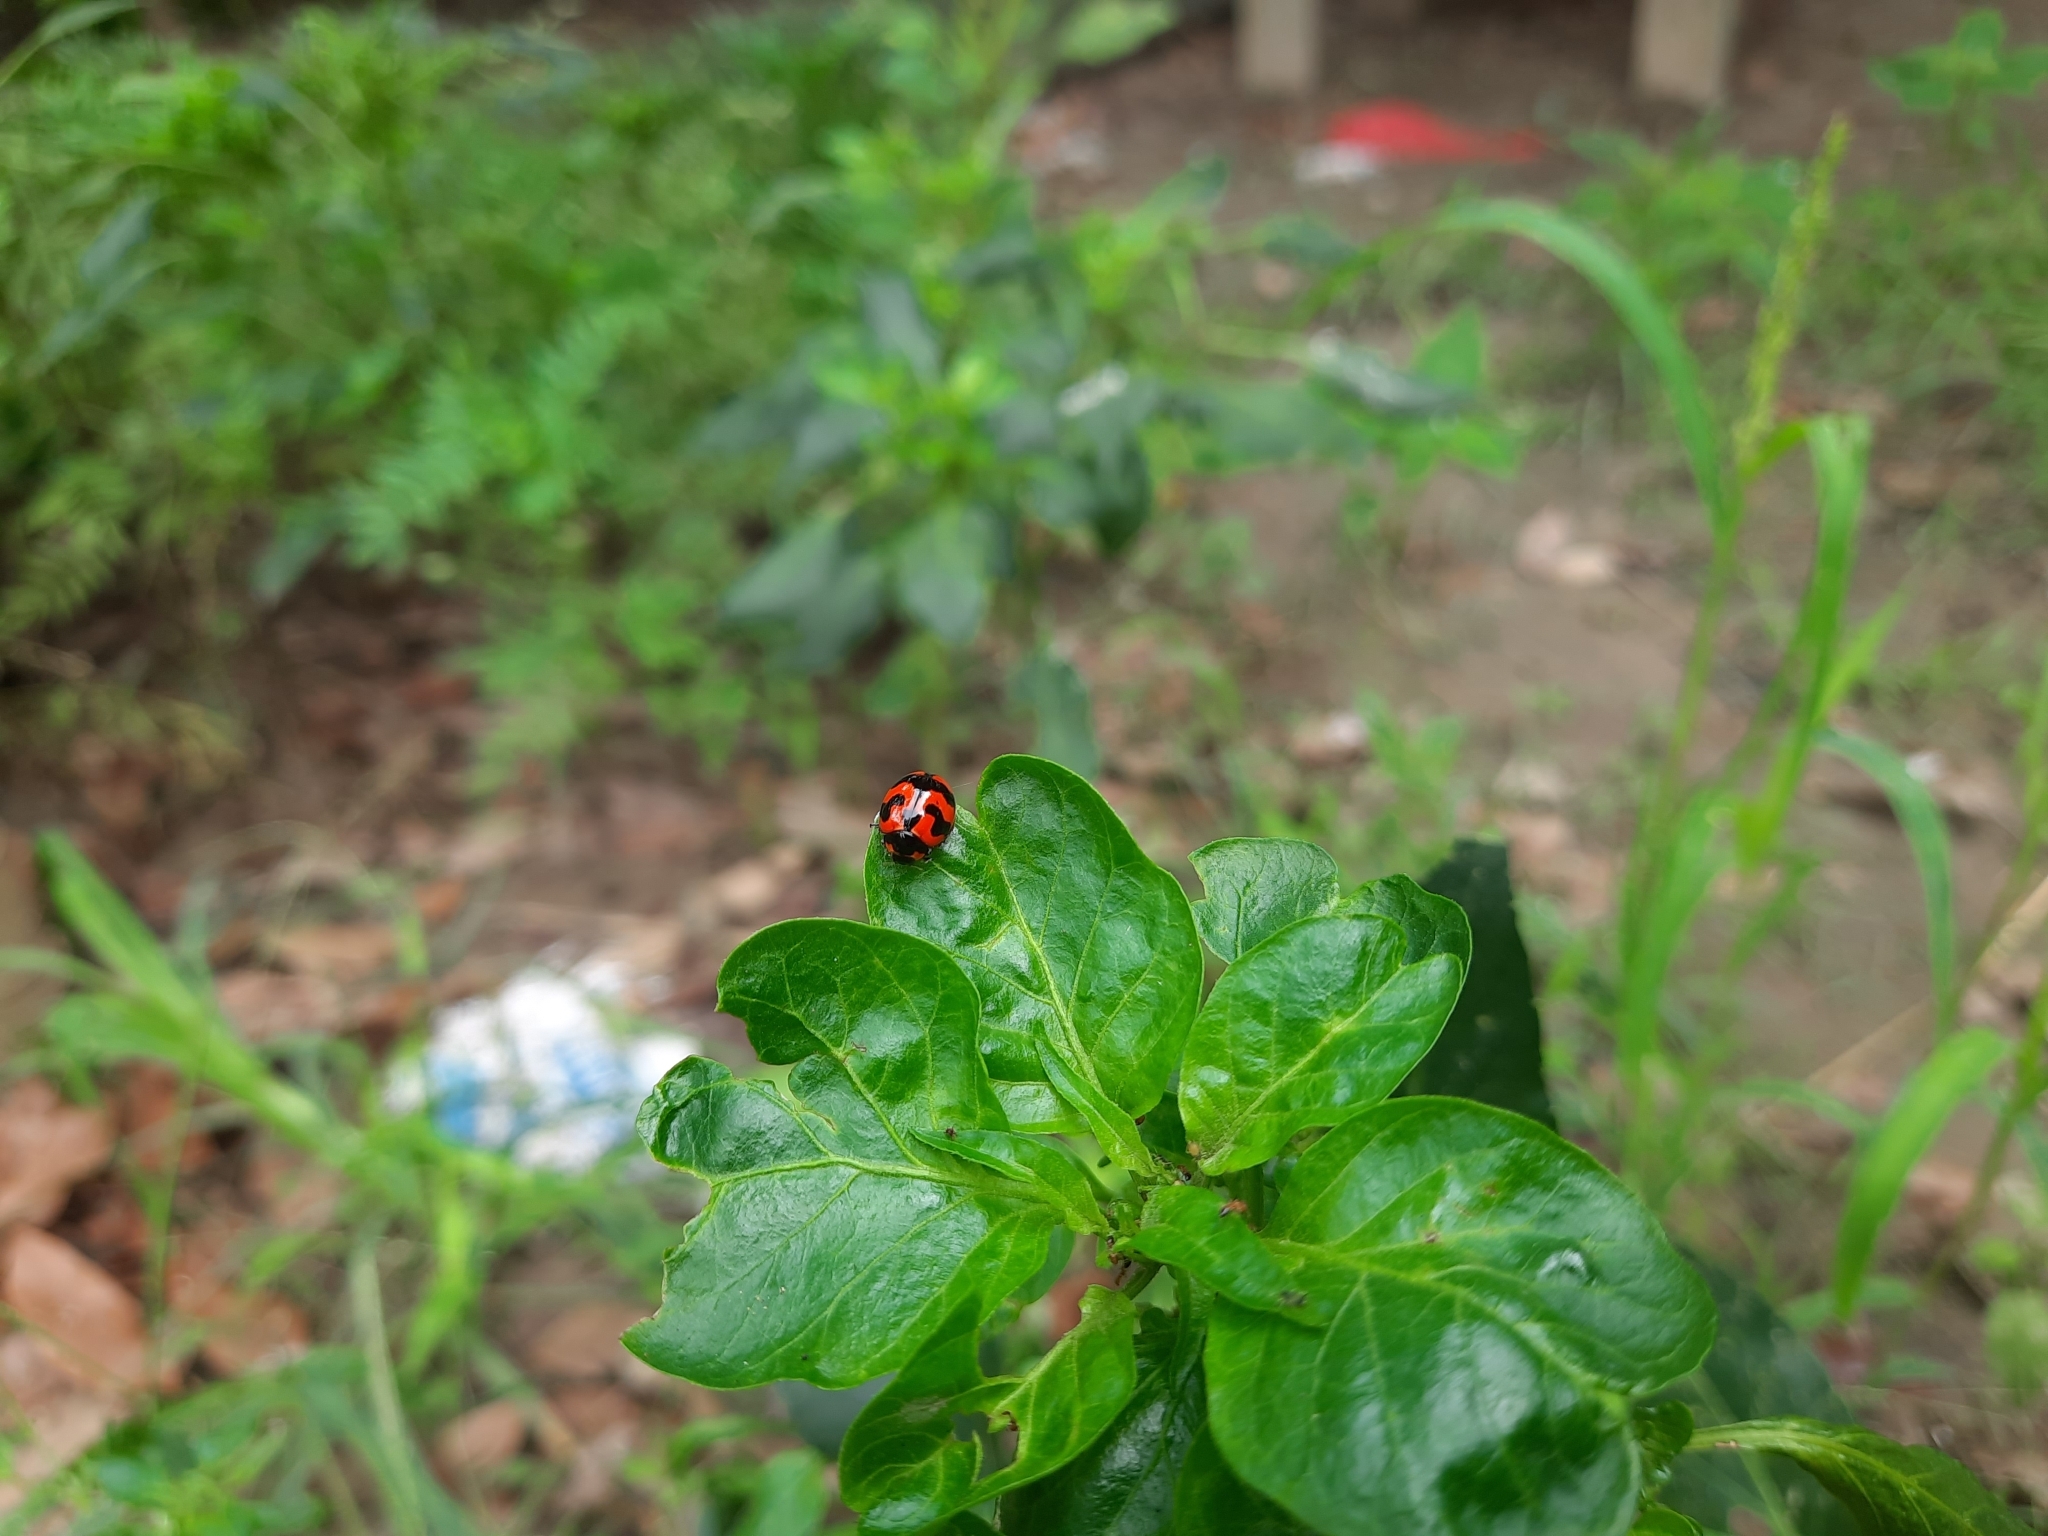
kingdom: Animalia
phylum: Arthropoda
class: Insecta
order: Coleoptera
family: Coccinellidae
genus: Coccinella
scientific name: Coccinella transversalis
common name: Transverse lady beetle
